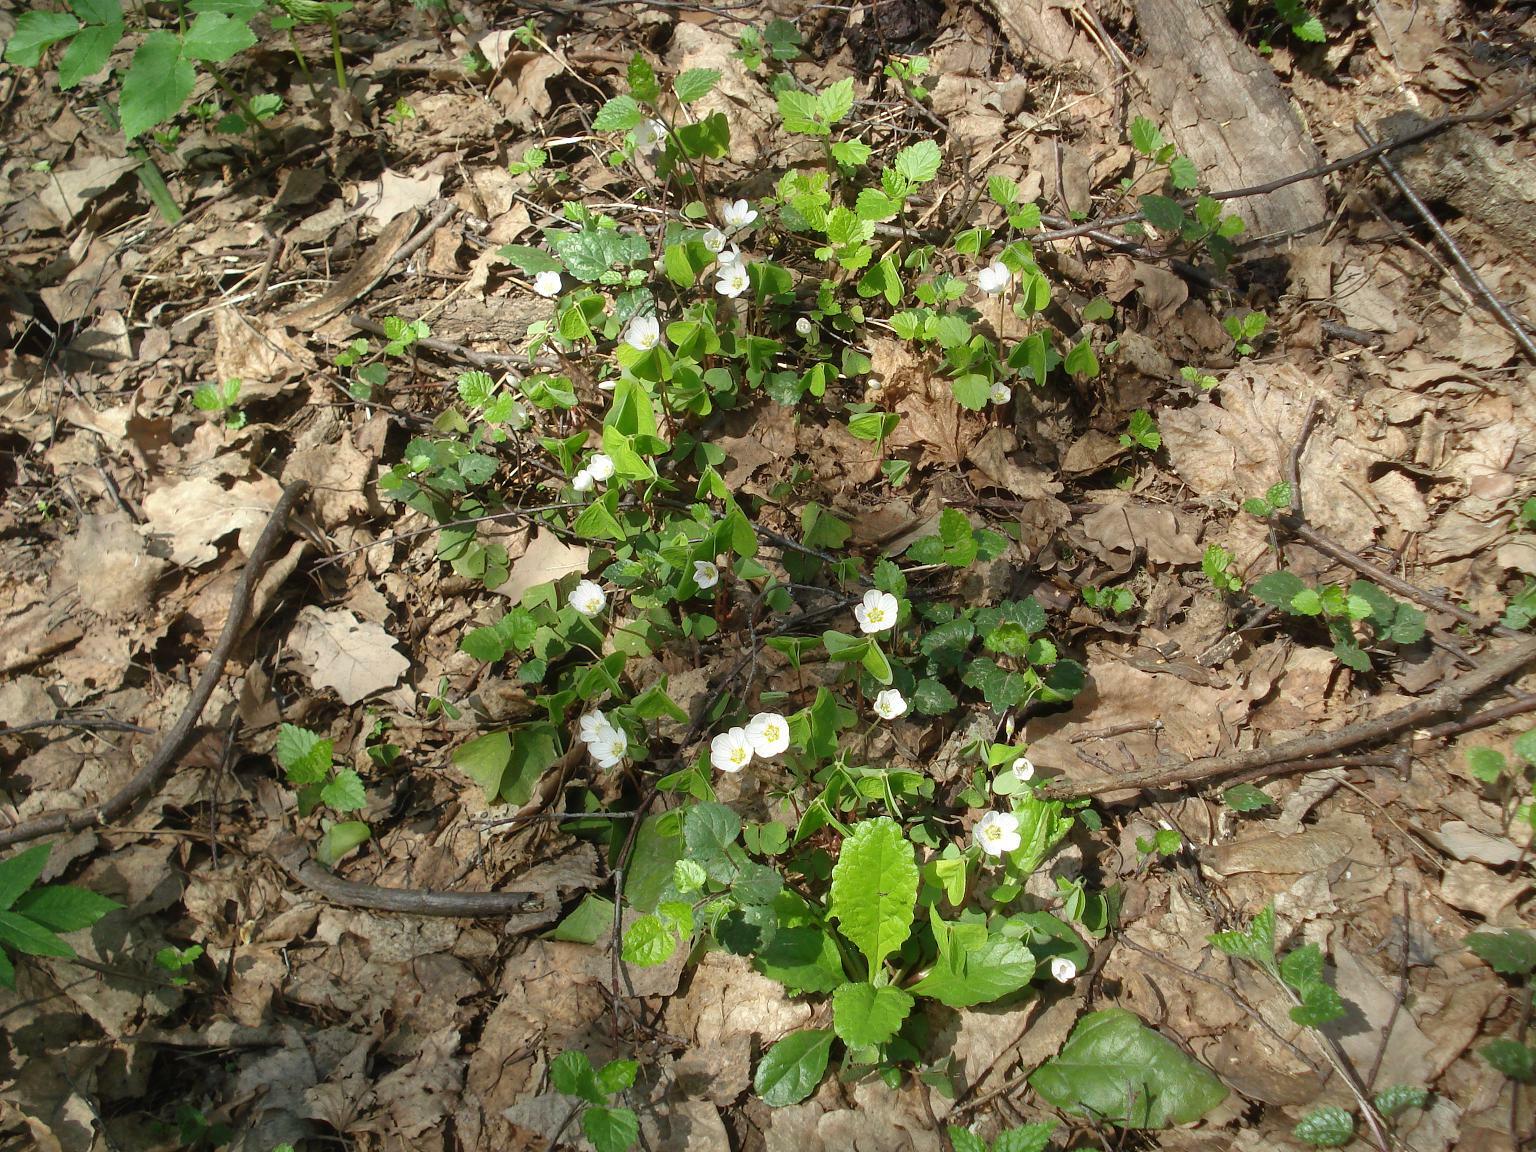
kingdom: Plantae
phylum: Tracheophyta
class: Magnoliopsida
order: Oxalidales
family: Oxalidaceae
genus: Oxalis
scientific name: Oxalis acetosella
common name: Wood-sorrel
